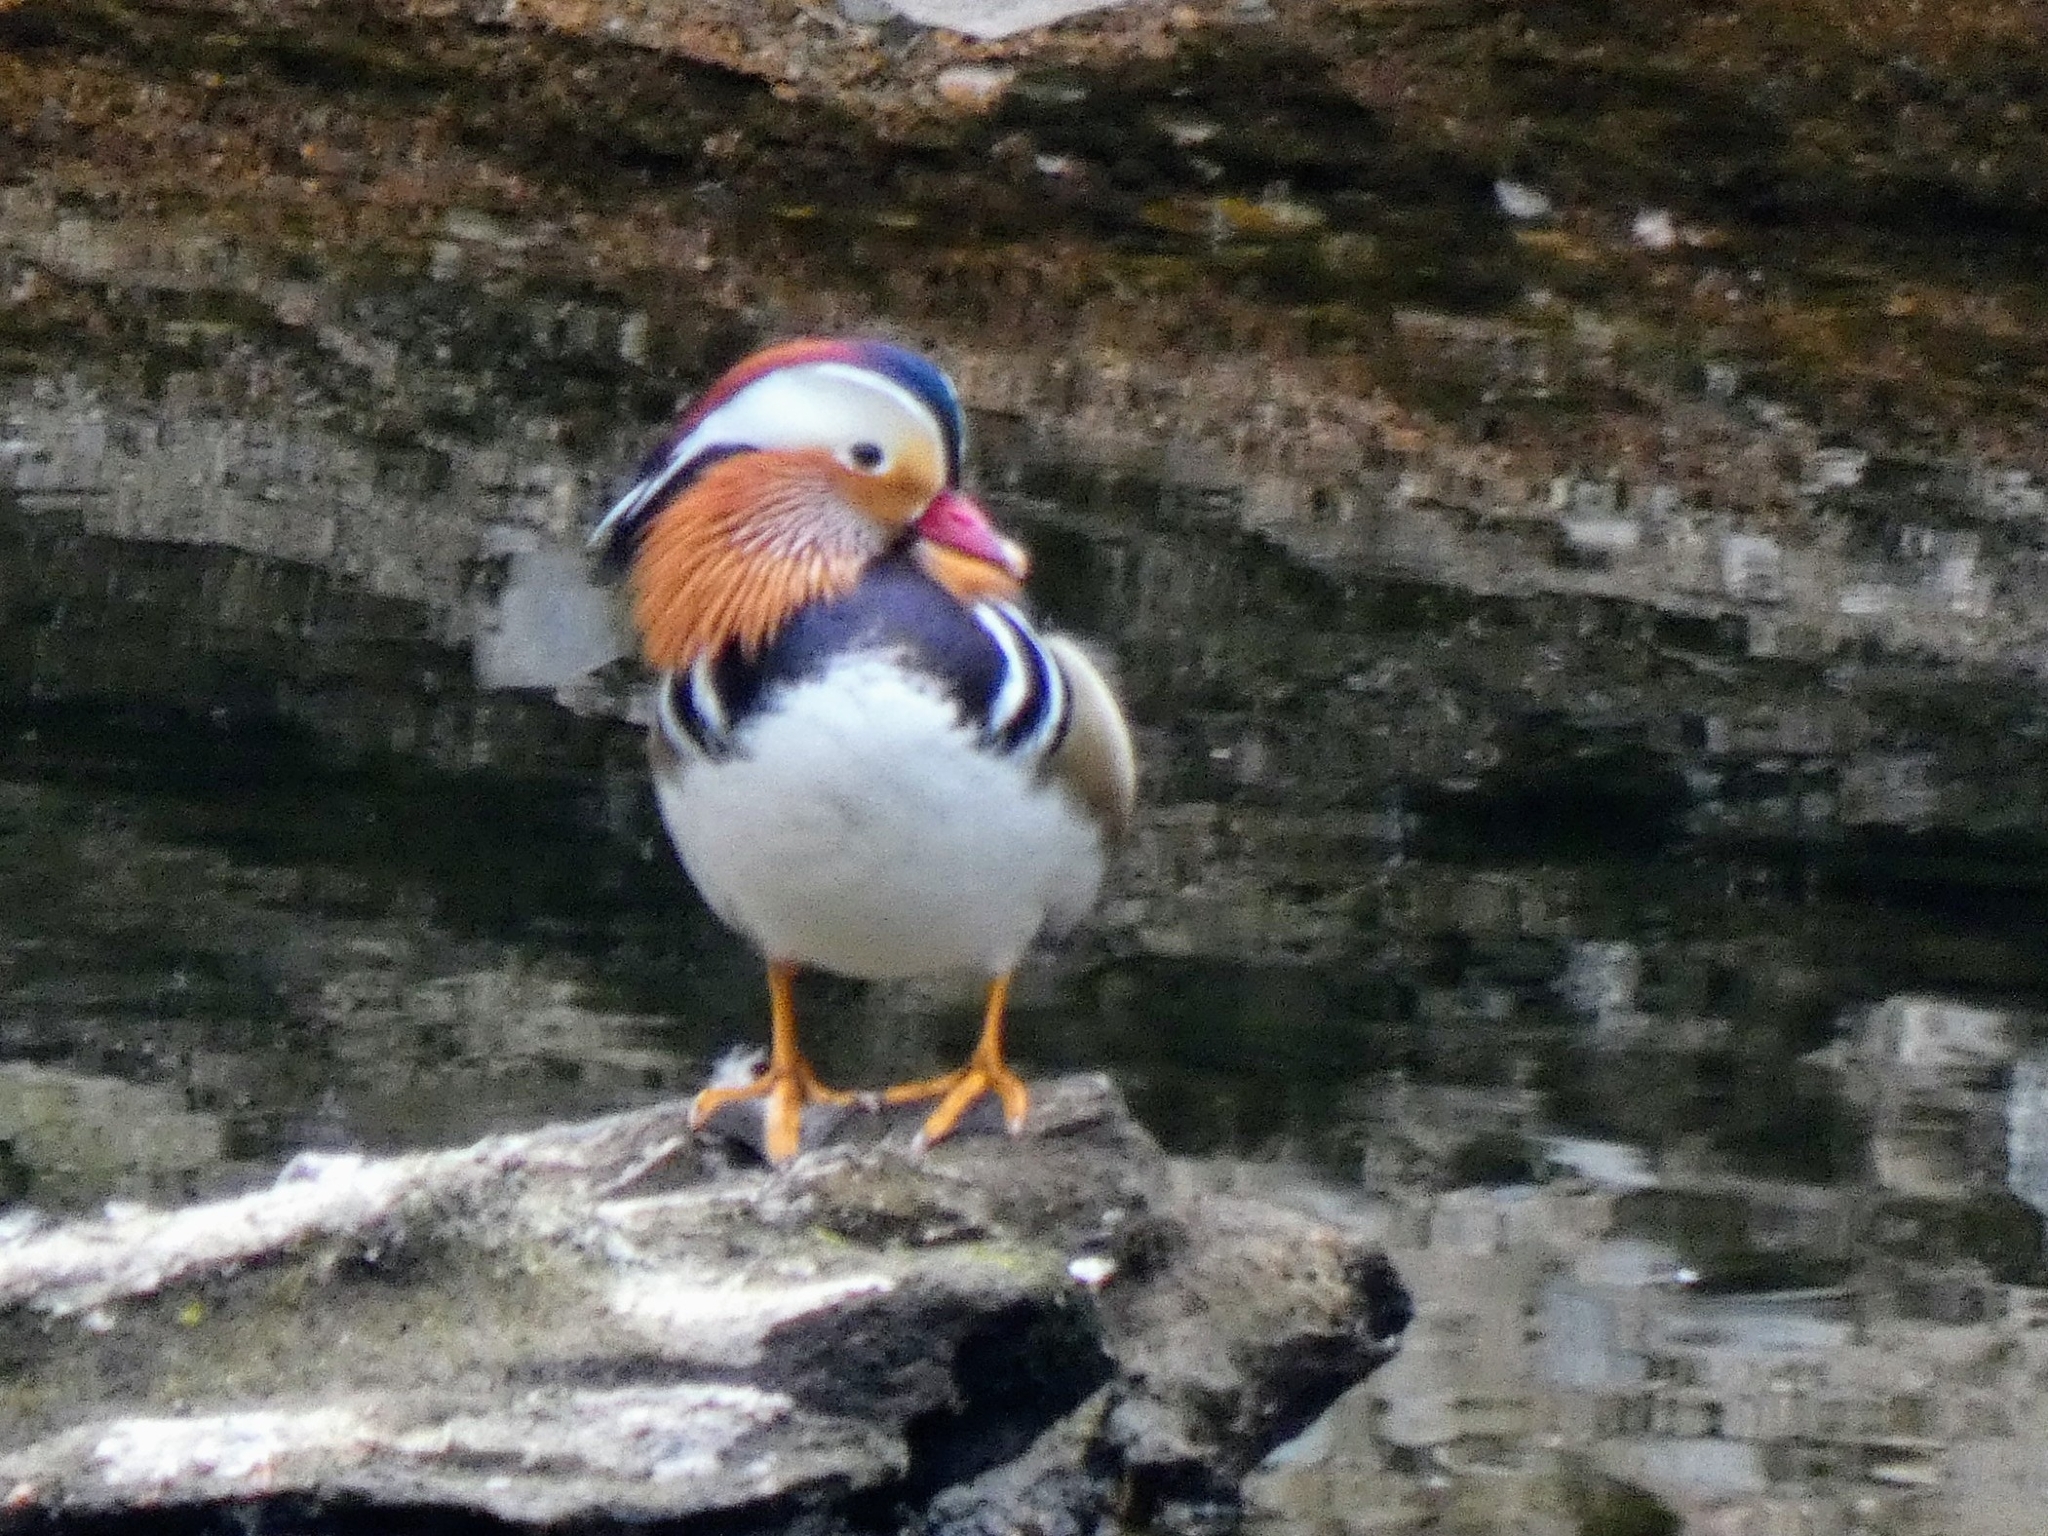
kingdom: Animalia
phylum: Chordata
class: Aves
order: Anseriformes
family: Anatidae
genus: Aix
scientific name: Aix galericulata
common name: Mandarin duck
